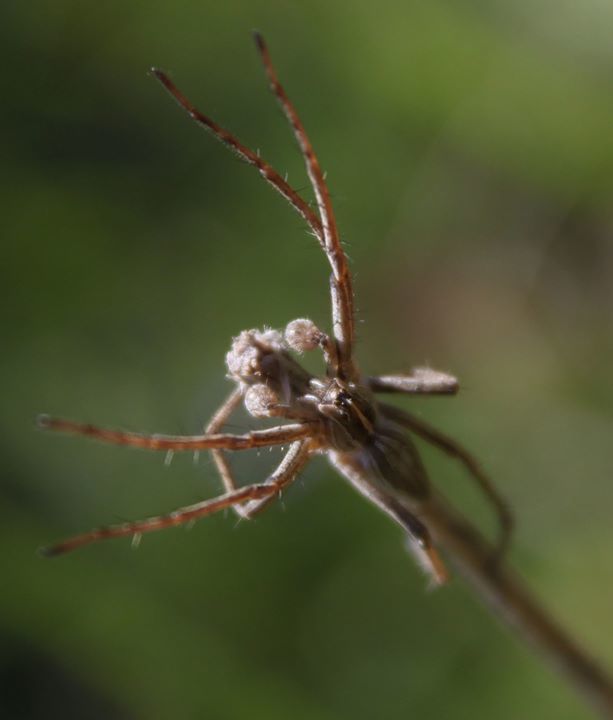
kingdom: Animalia
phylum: Arthropoda
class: Arachnida
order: Araneae
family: Pisauridae
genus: Pisaura
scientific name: Pisaura mirabilis
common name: Tent spider
